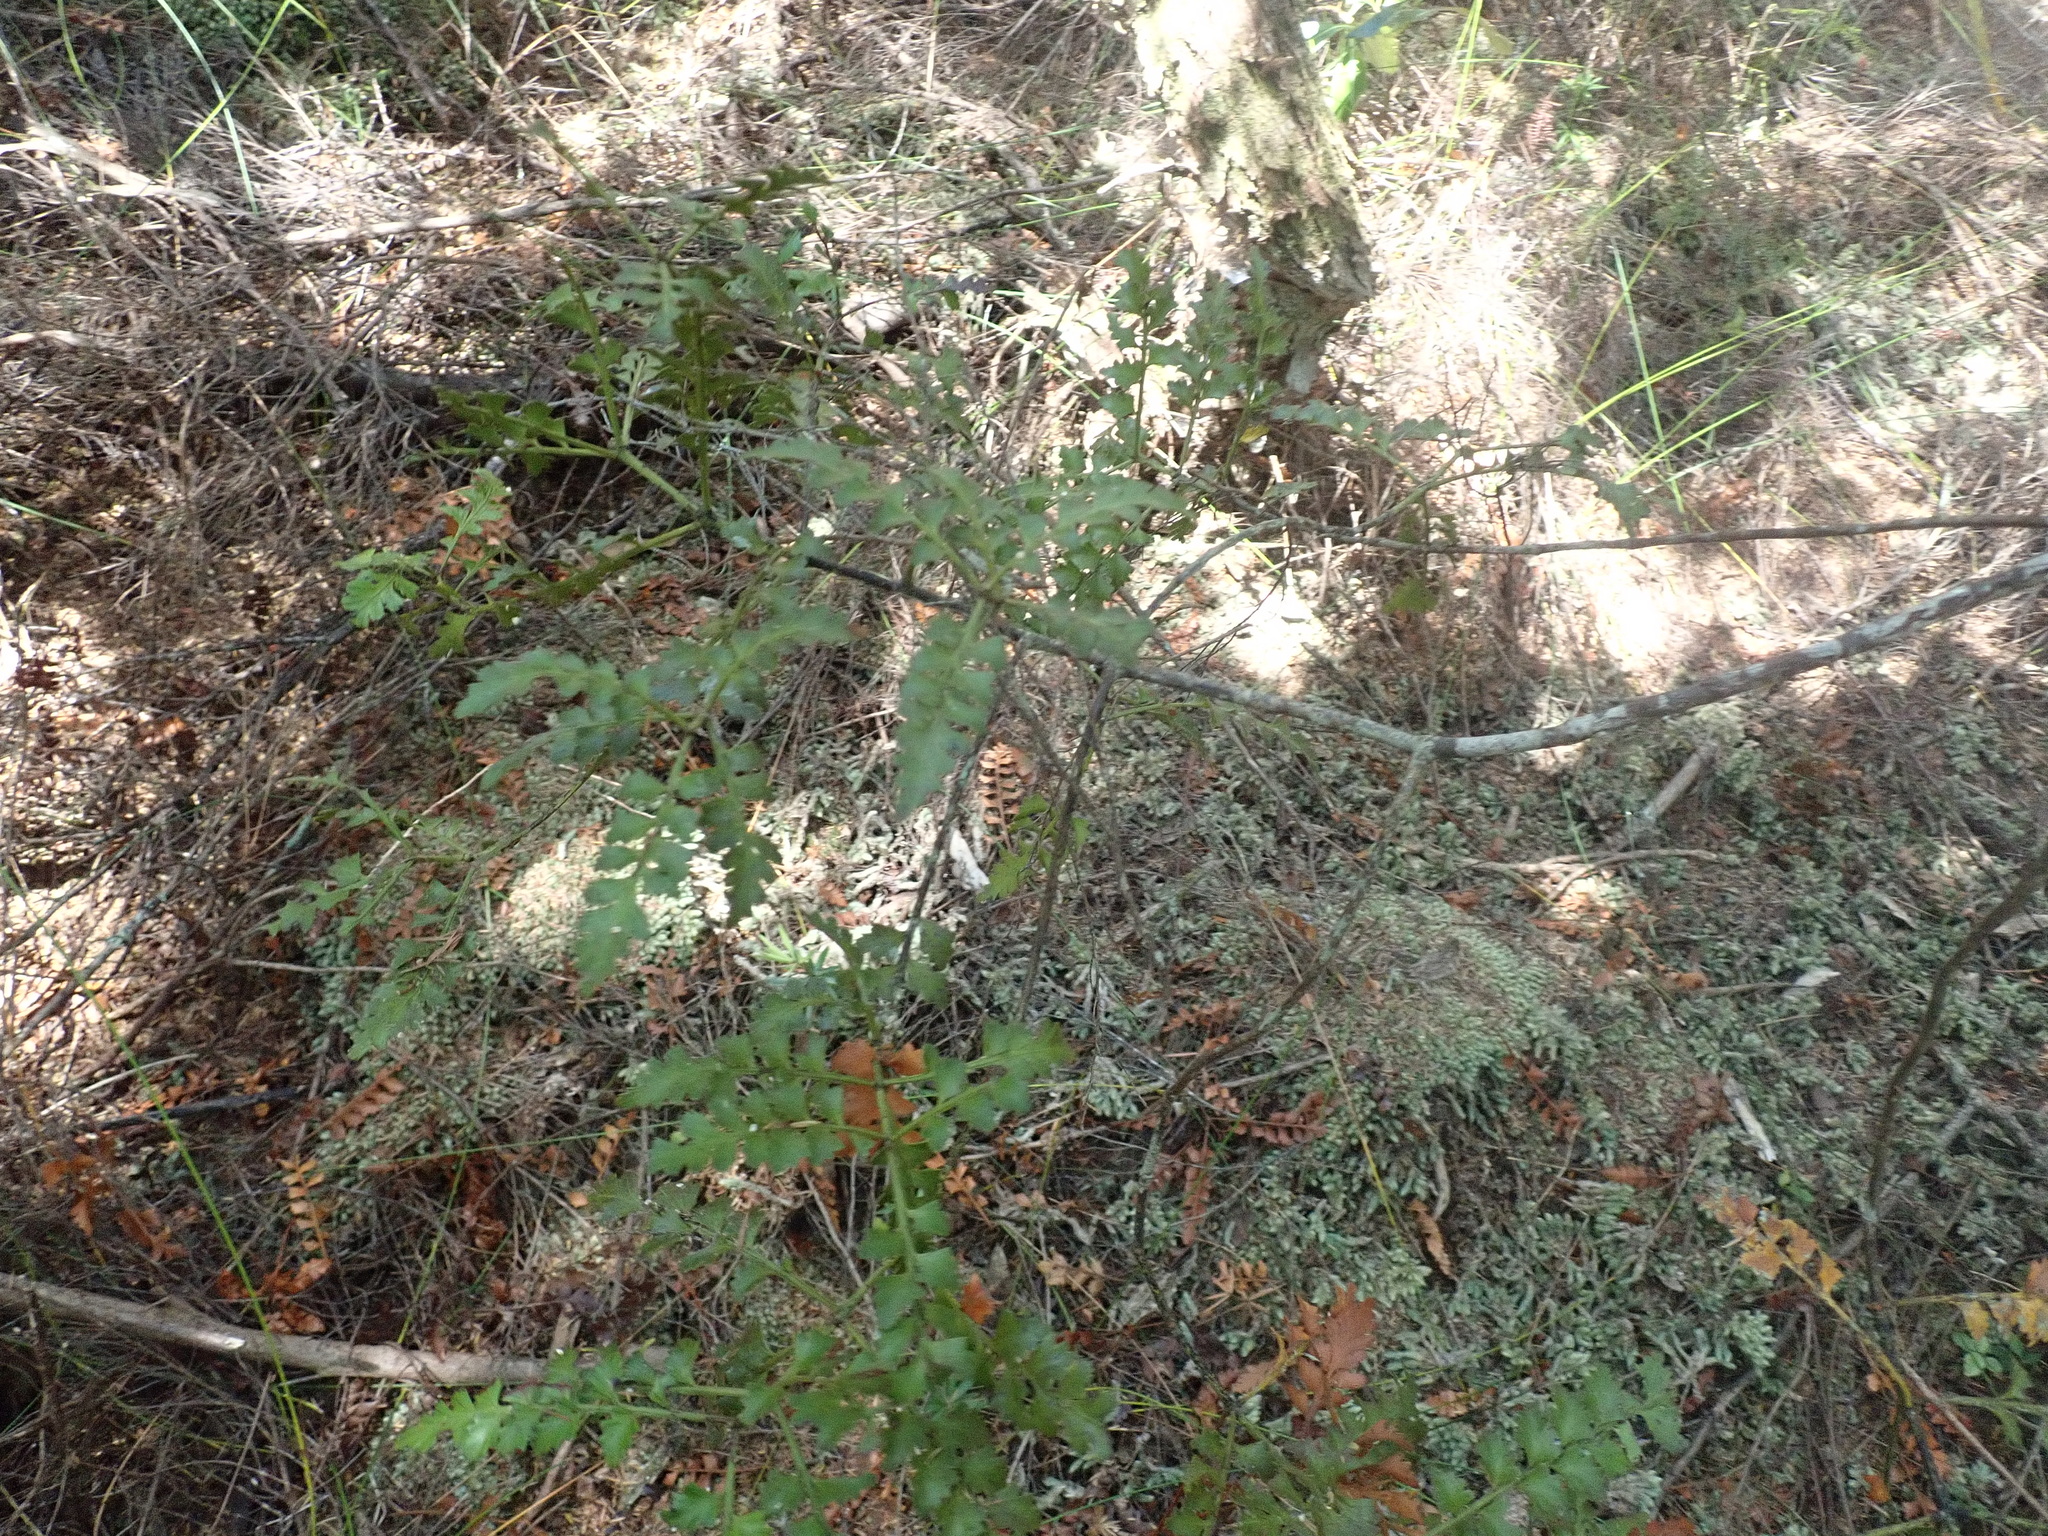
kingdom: Plantae
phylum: Bryophyta
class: Bryopsida
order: Dicranales
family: Leucobryaceae
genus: Leucobryum
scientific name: Leucobryum javense
